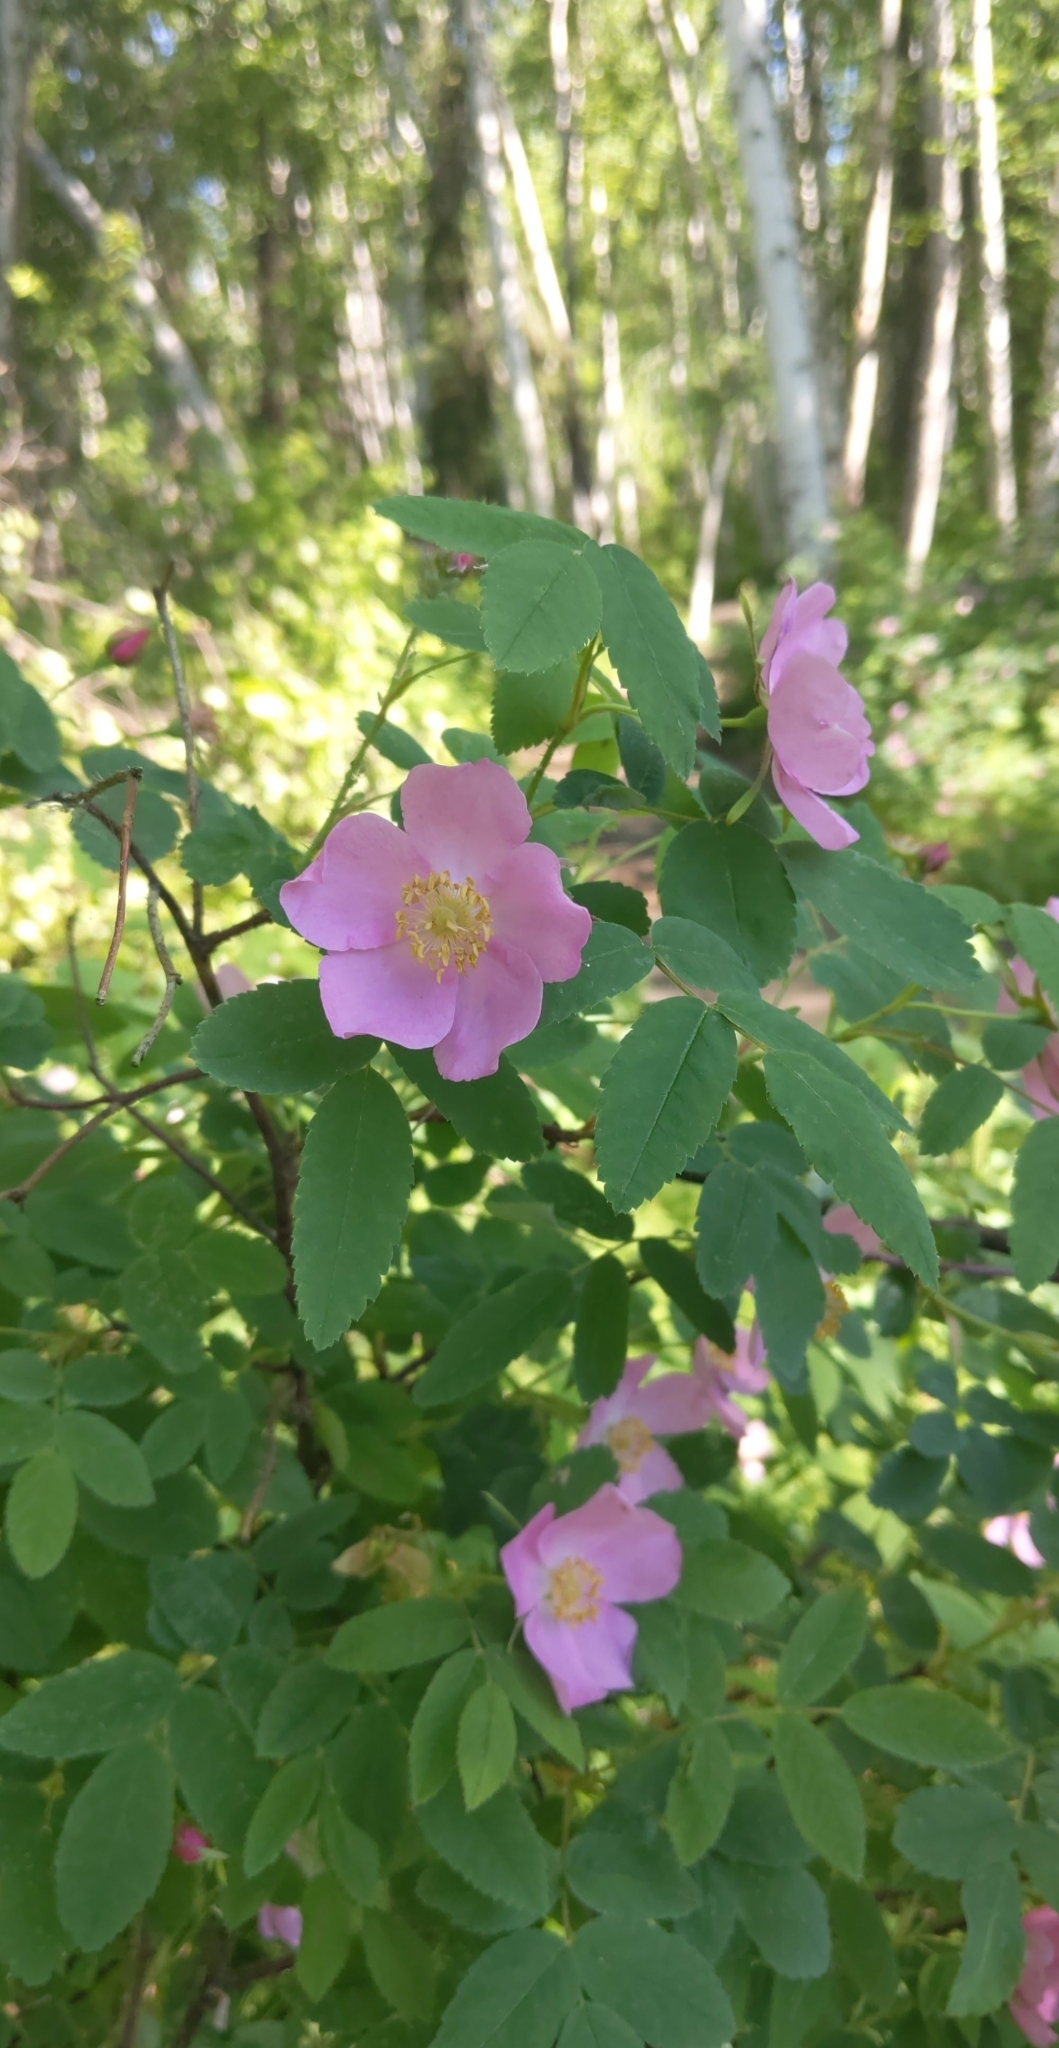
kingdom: Plantae
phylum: Tracheophyta
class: Magnoliopsida
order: Rosales
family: Rosaceae
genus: Rosa
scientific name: Rosa acicularis
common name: Prickly rose
